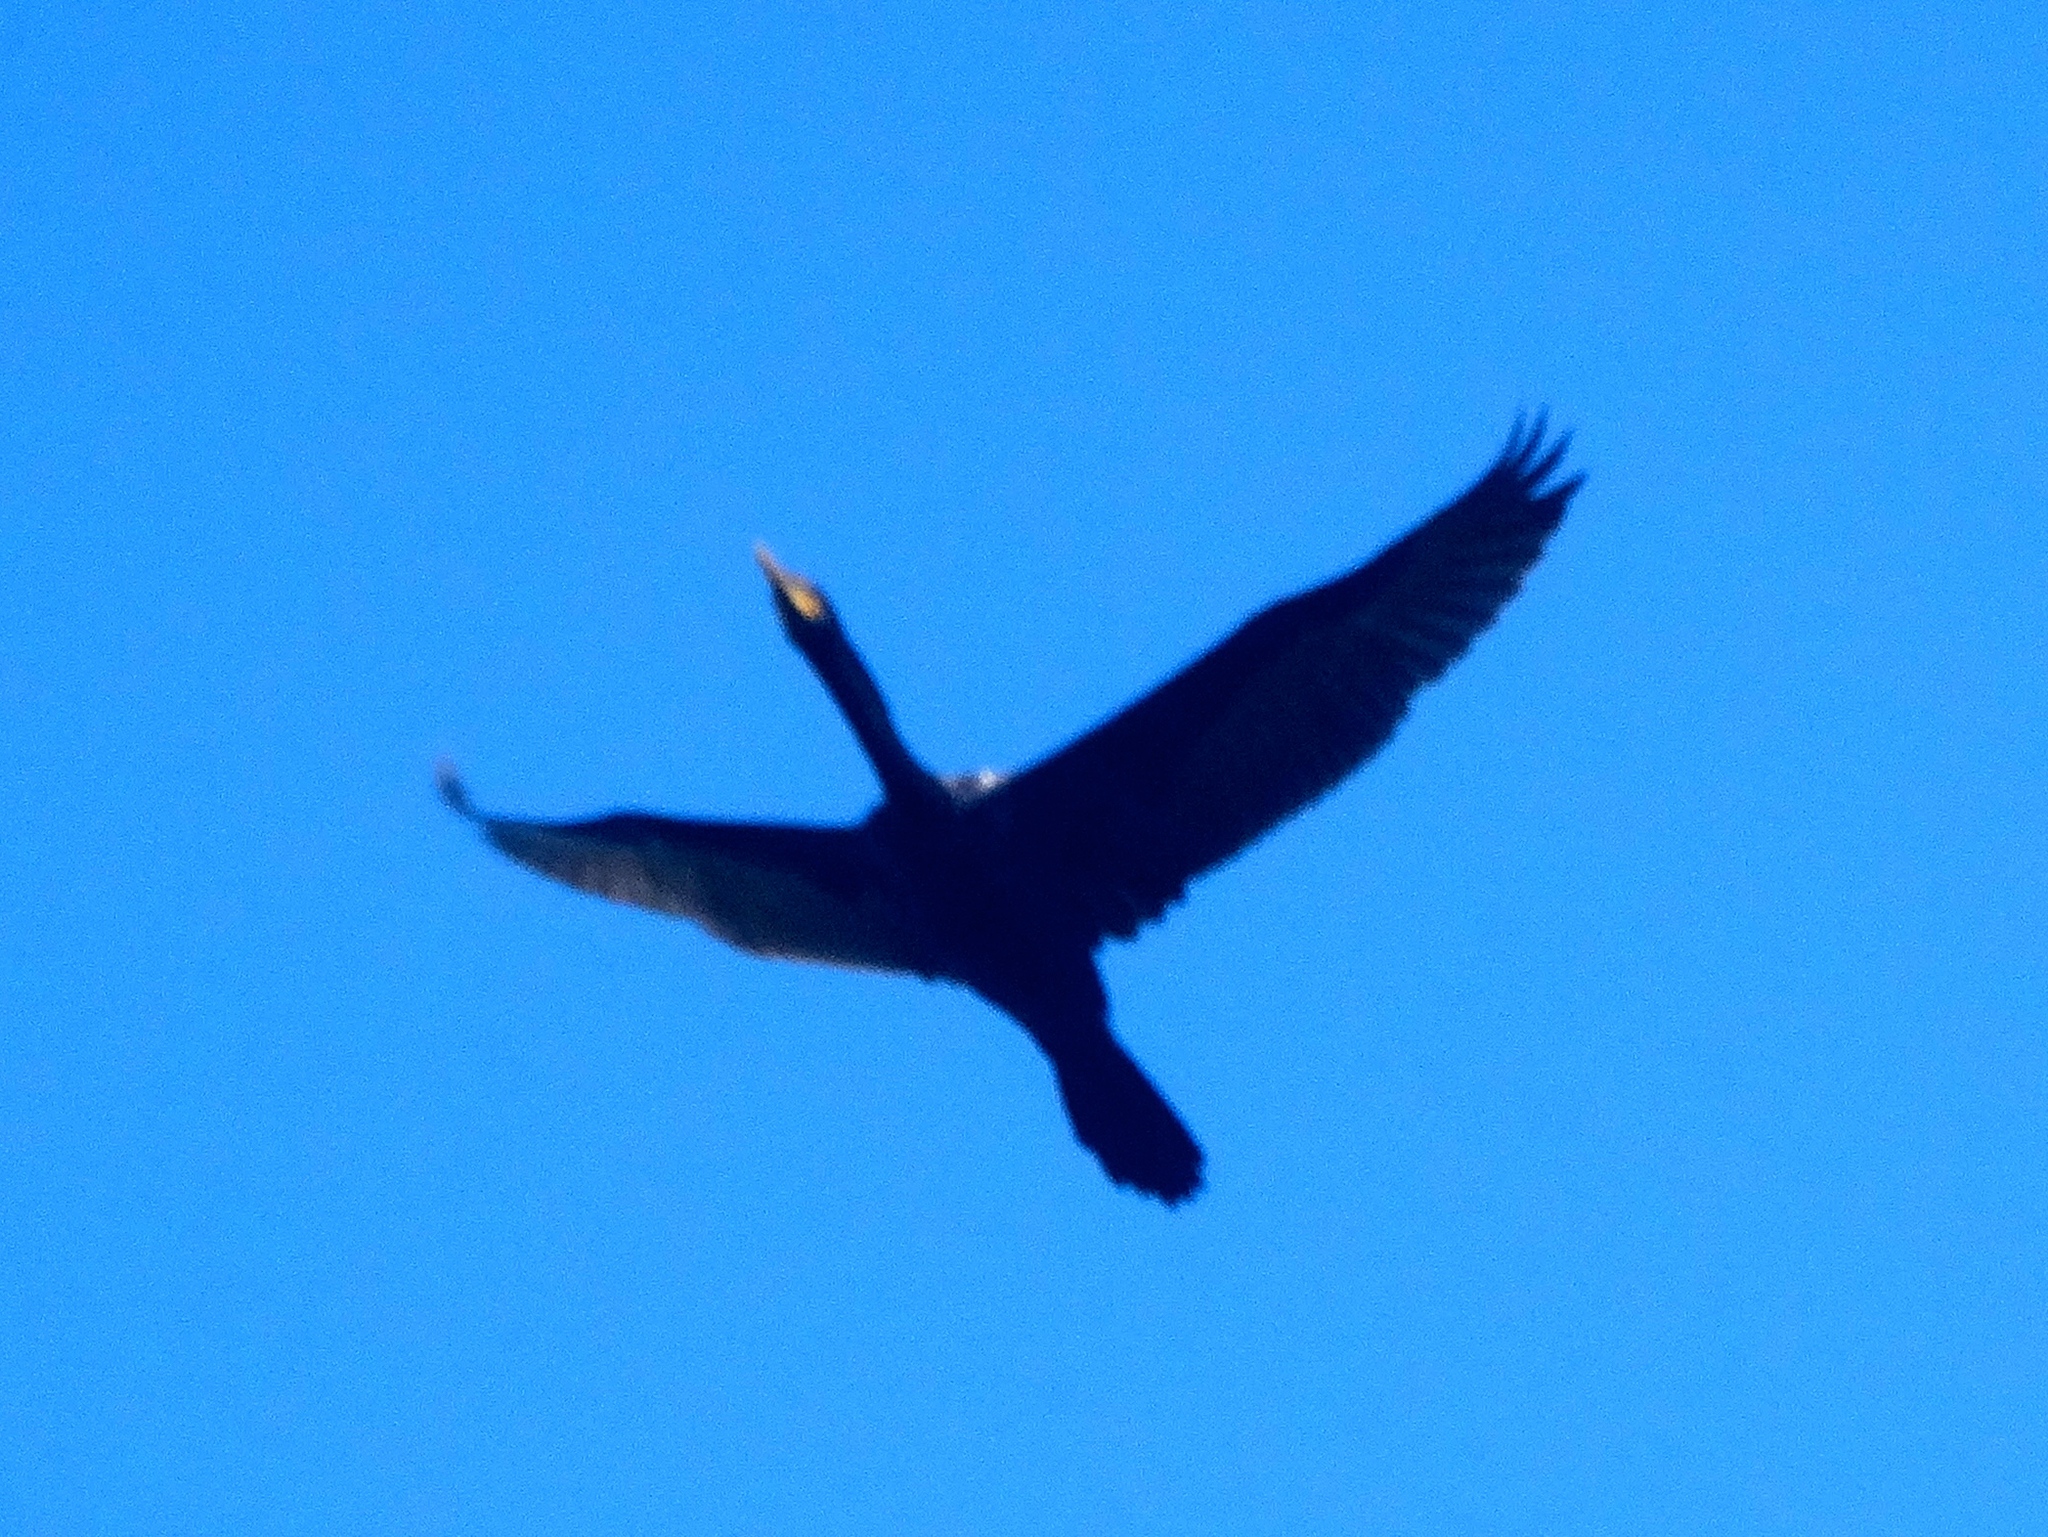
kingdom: Animalia
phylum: Chordata
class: Aves
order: Suliformes
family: Phalacrocoracidae
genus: Phalacrocorax
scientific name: Phalacrocorax brasilianus
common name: Neotropic cormorant
